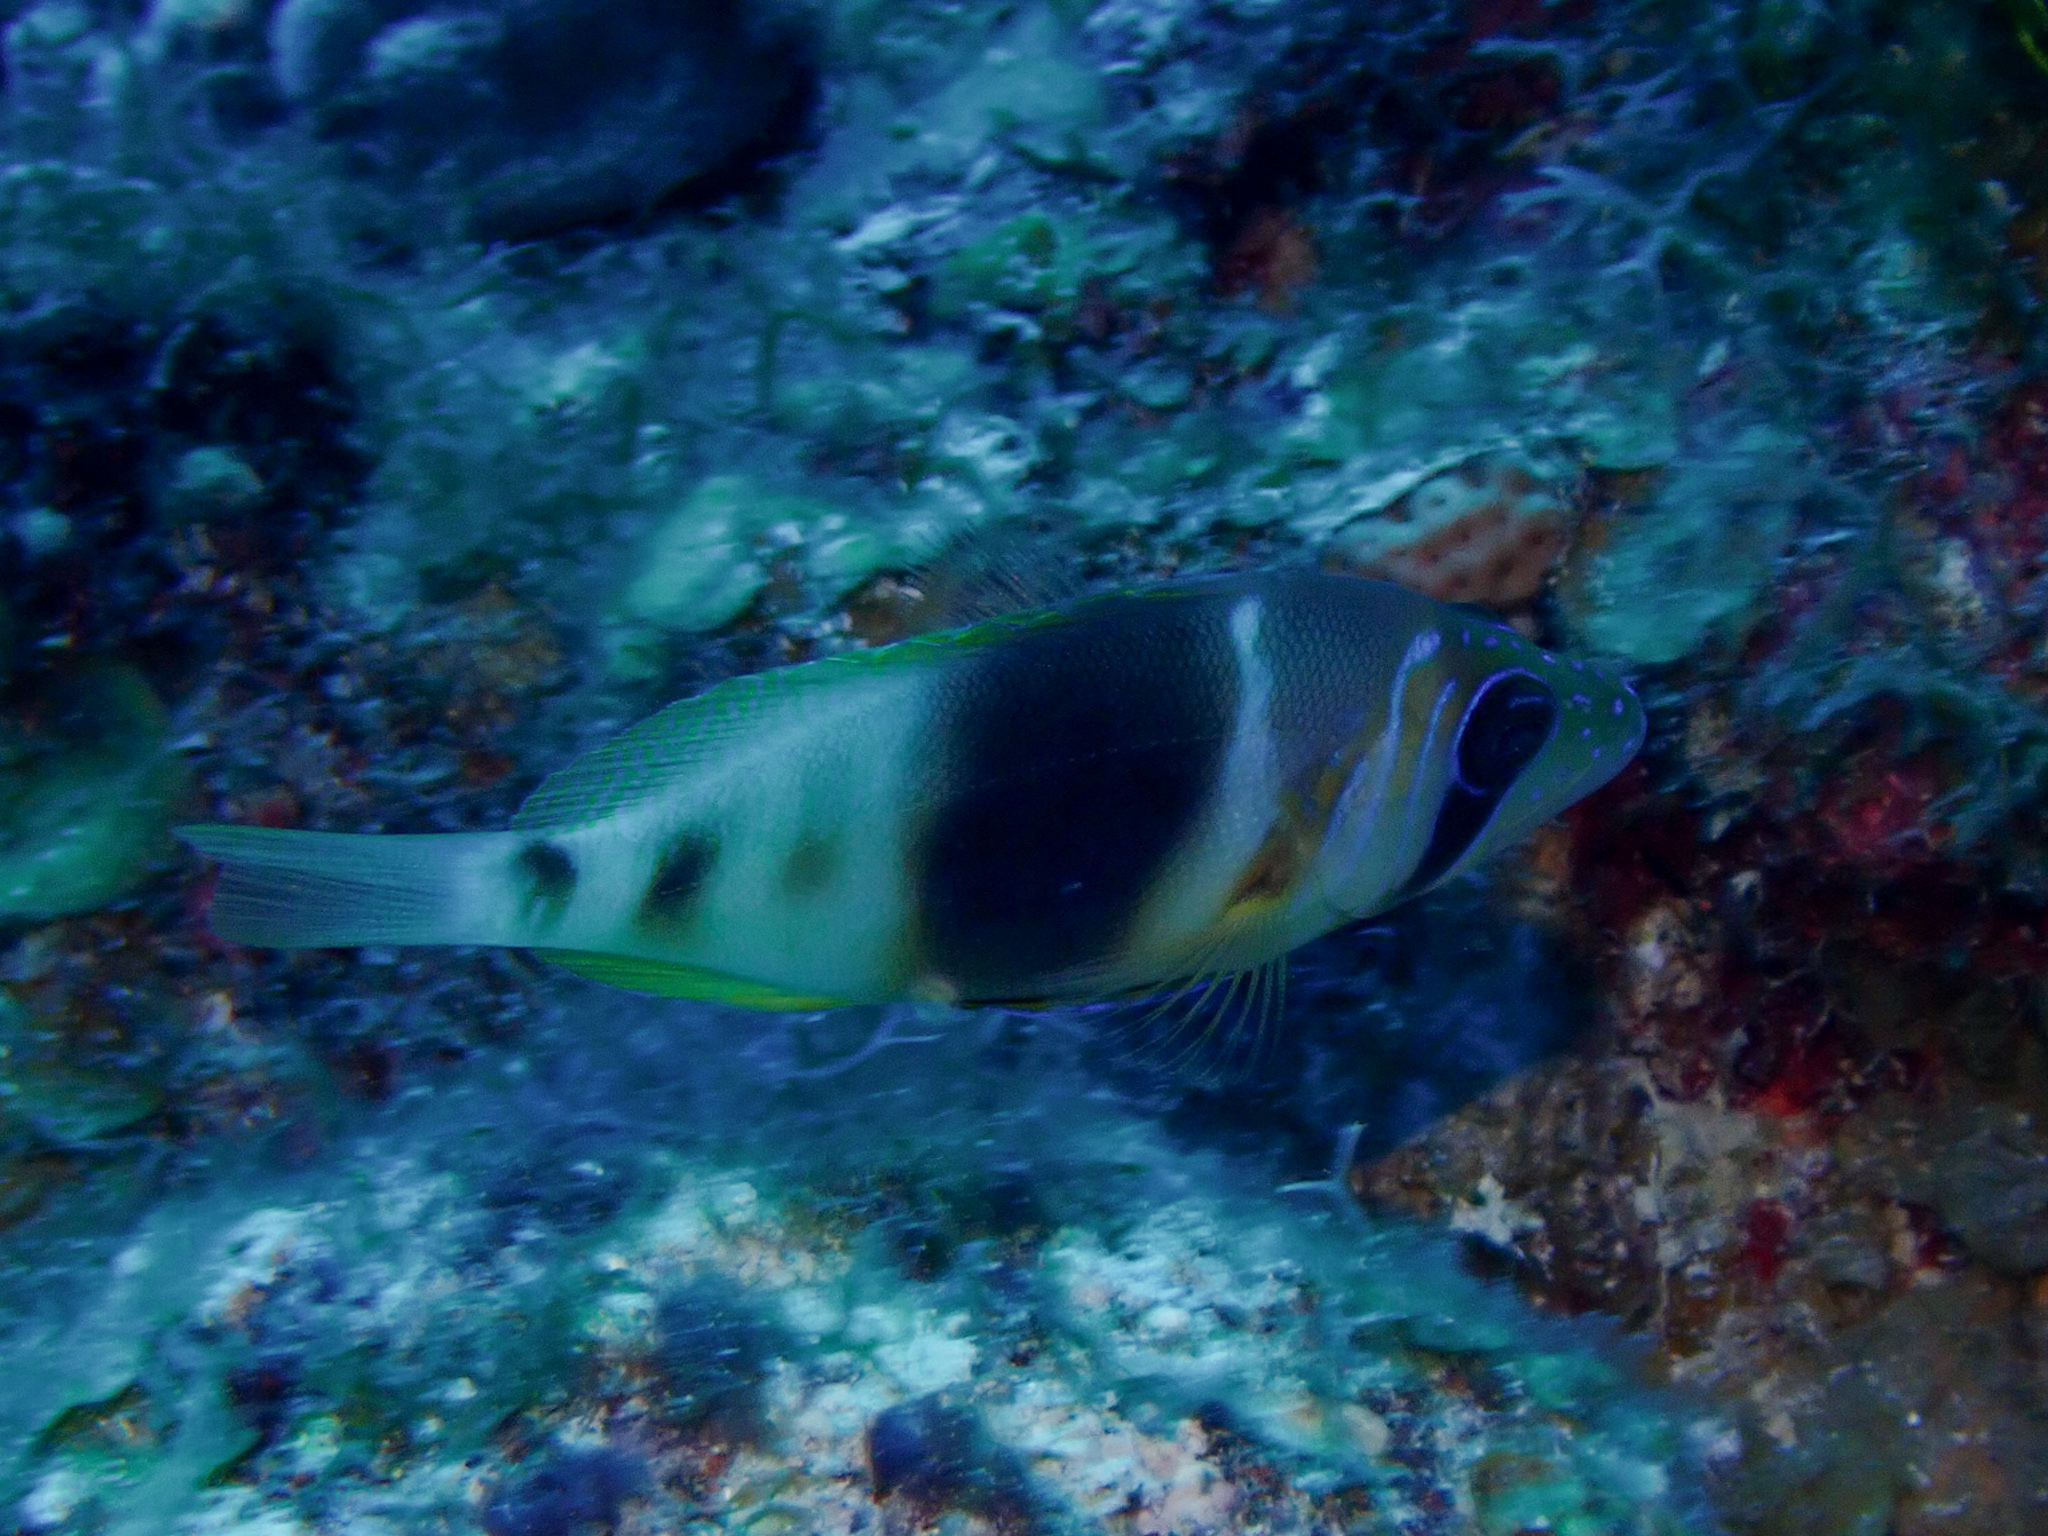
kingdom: Animalia
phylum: Chordata
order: Perciformes
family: Serranidae
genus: Hypoplectrus
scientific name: Hypoplectrus puella
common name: Barred hamlet
